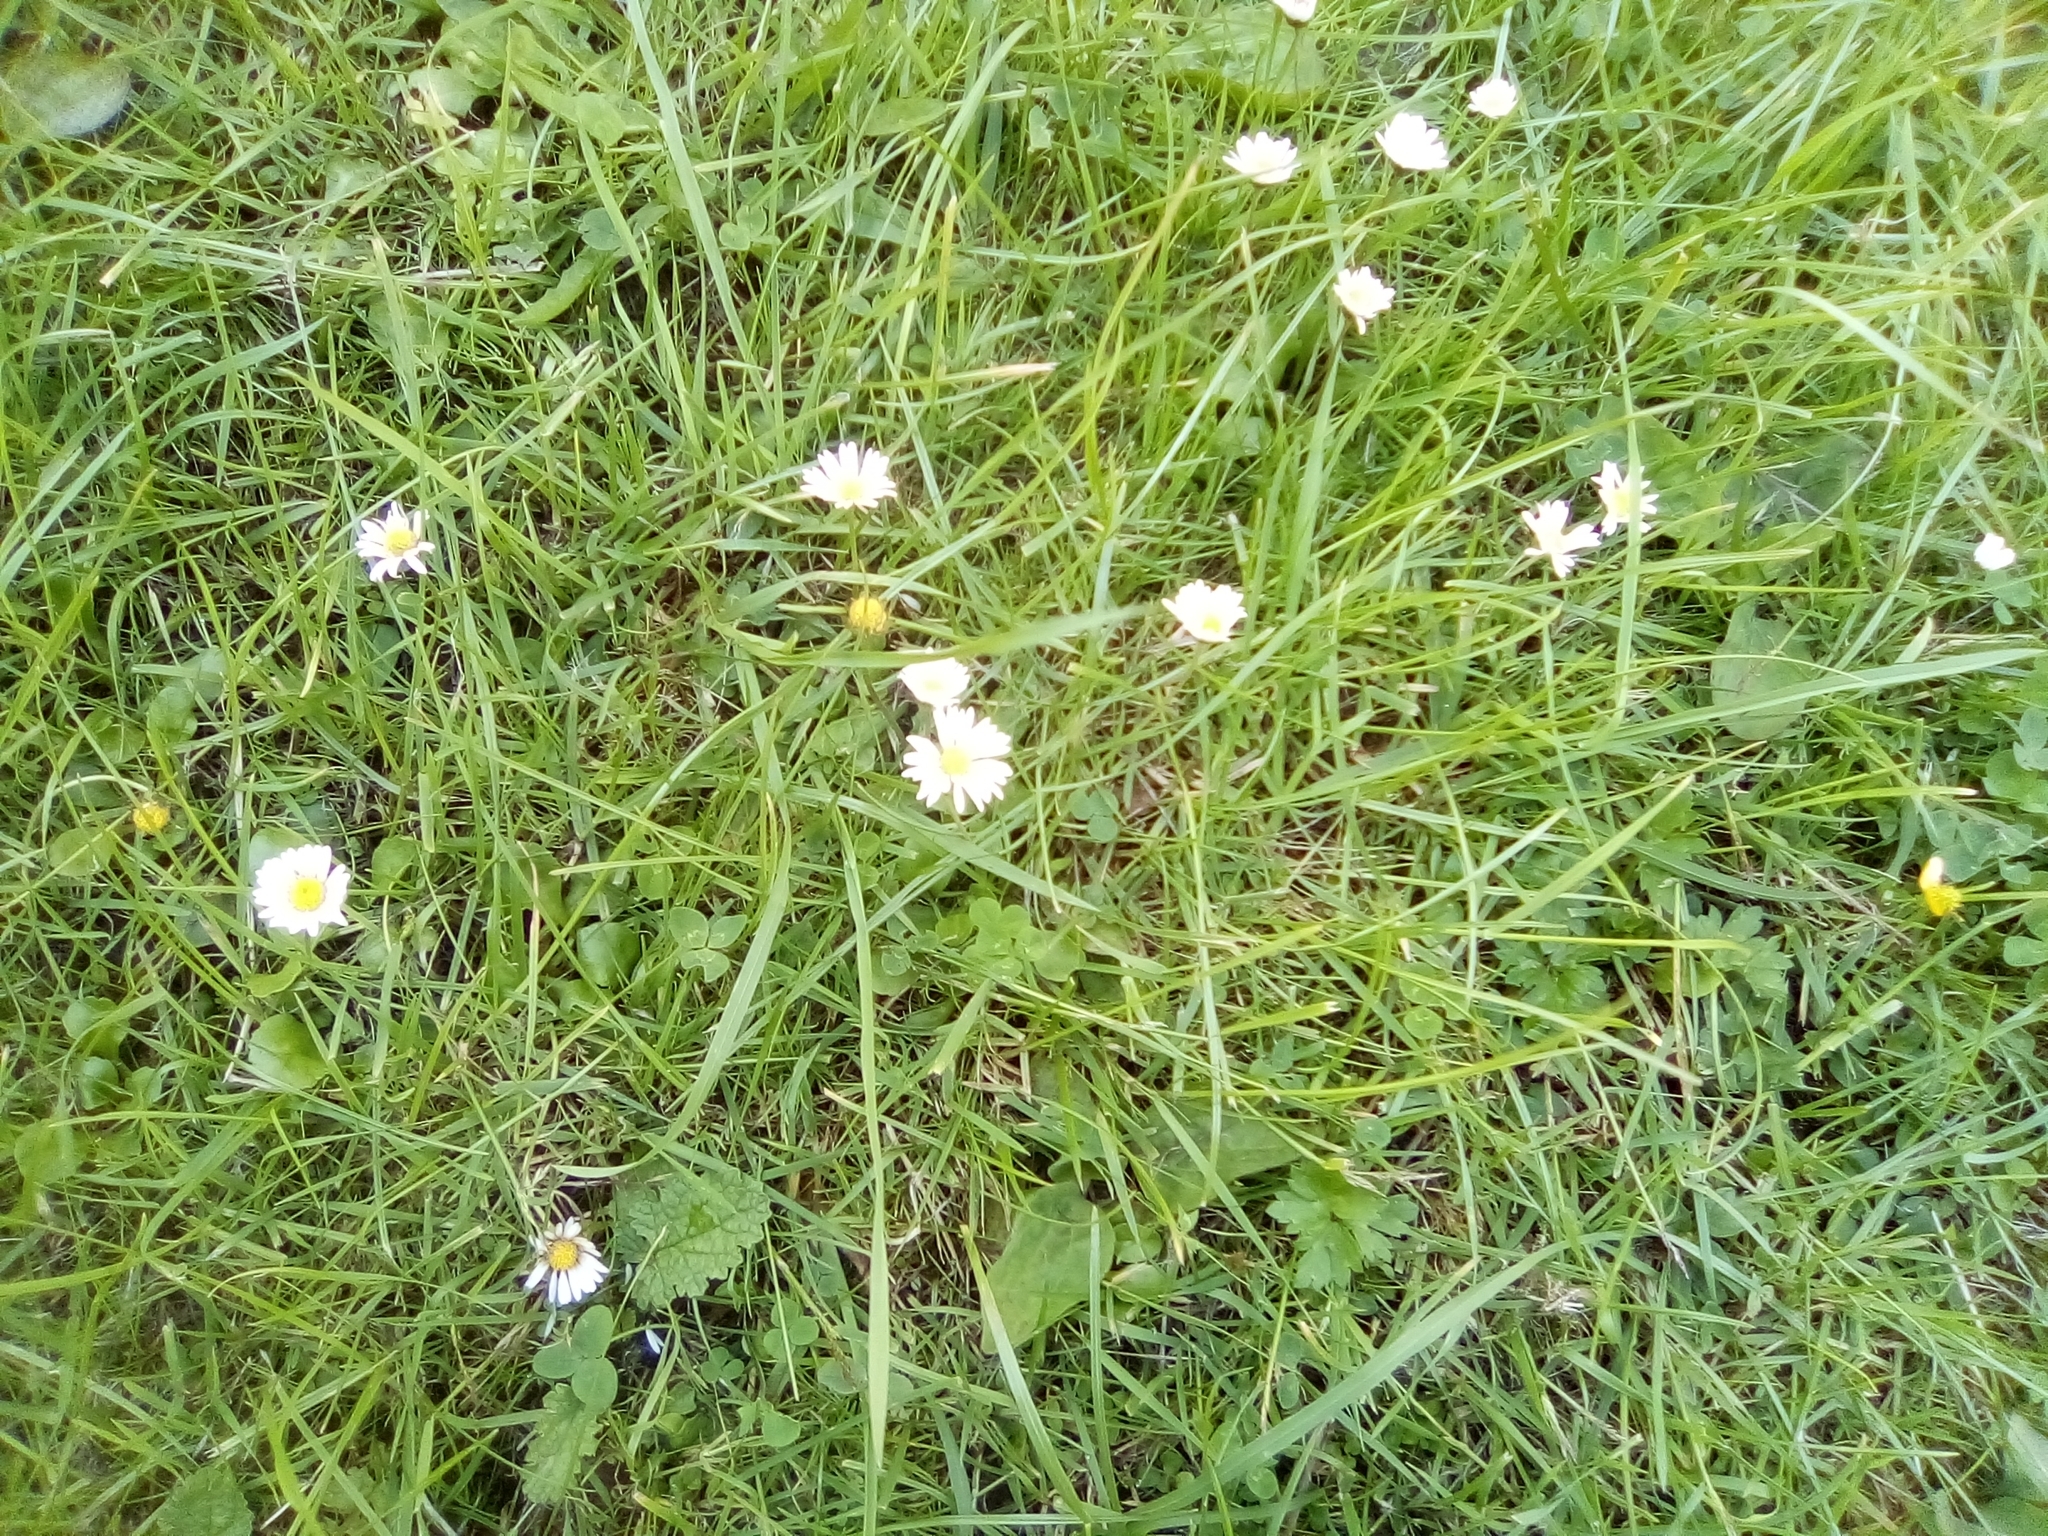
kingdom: Plantae
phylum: Tracheophyta
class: Magnoliopsida
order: Asterales
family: Asteraceae
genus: Bellis
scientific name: Bellis perennis
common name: Lawndaisy
